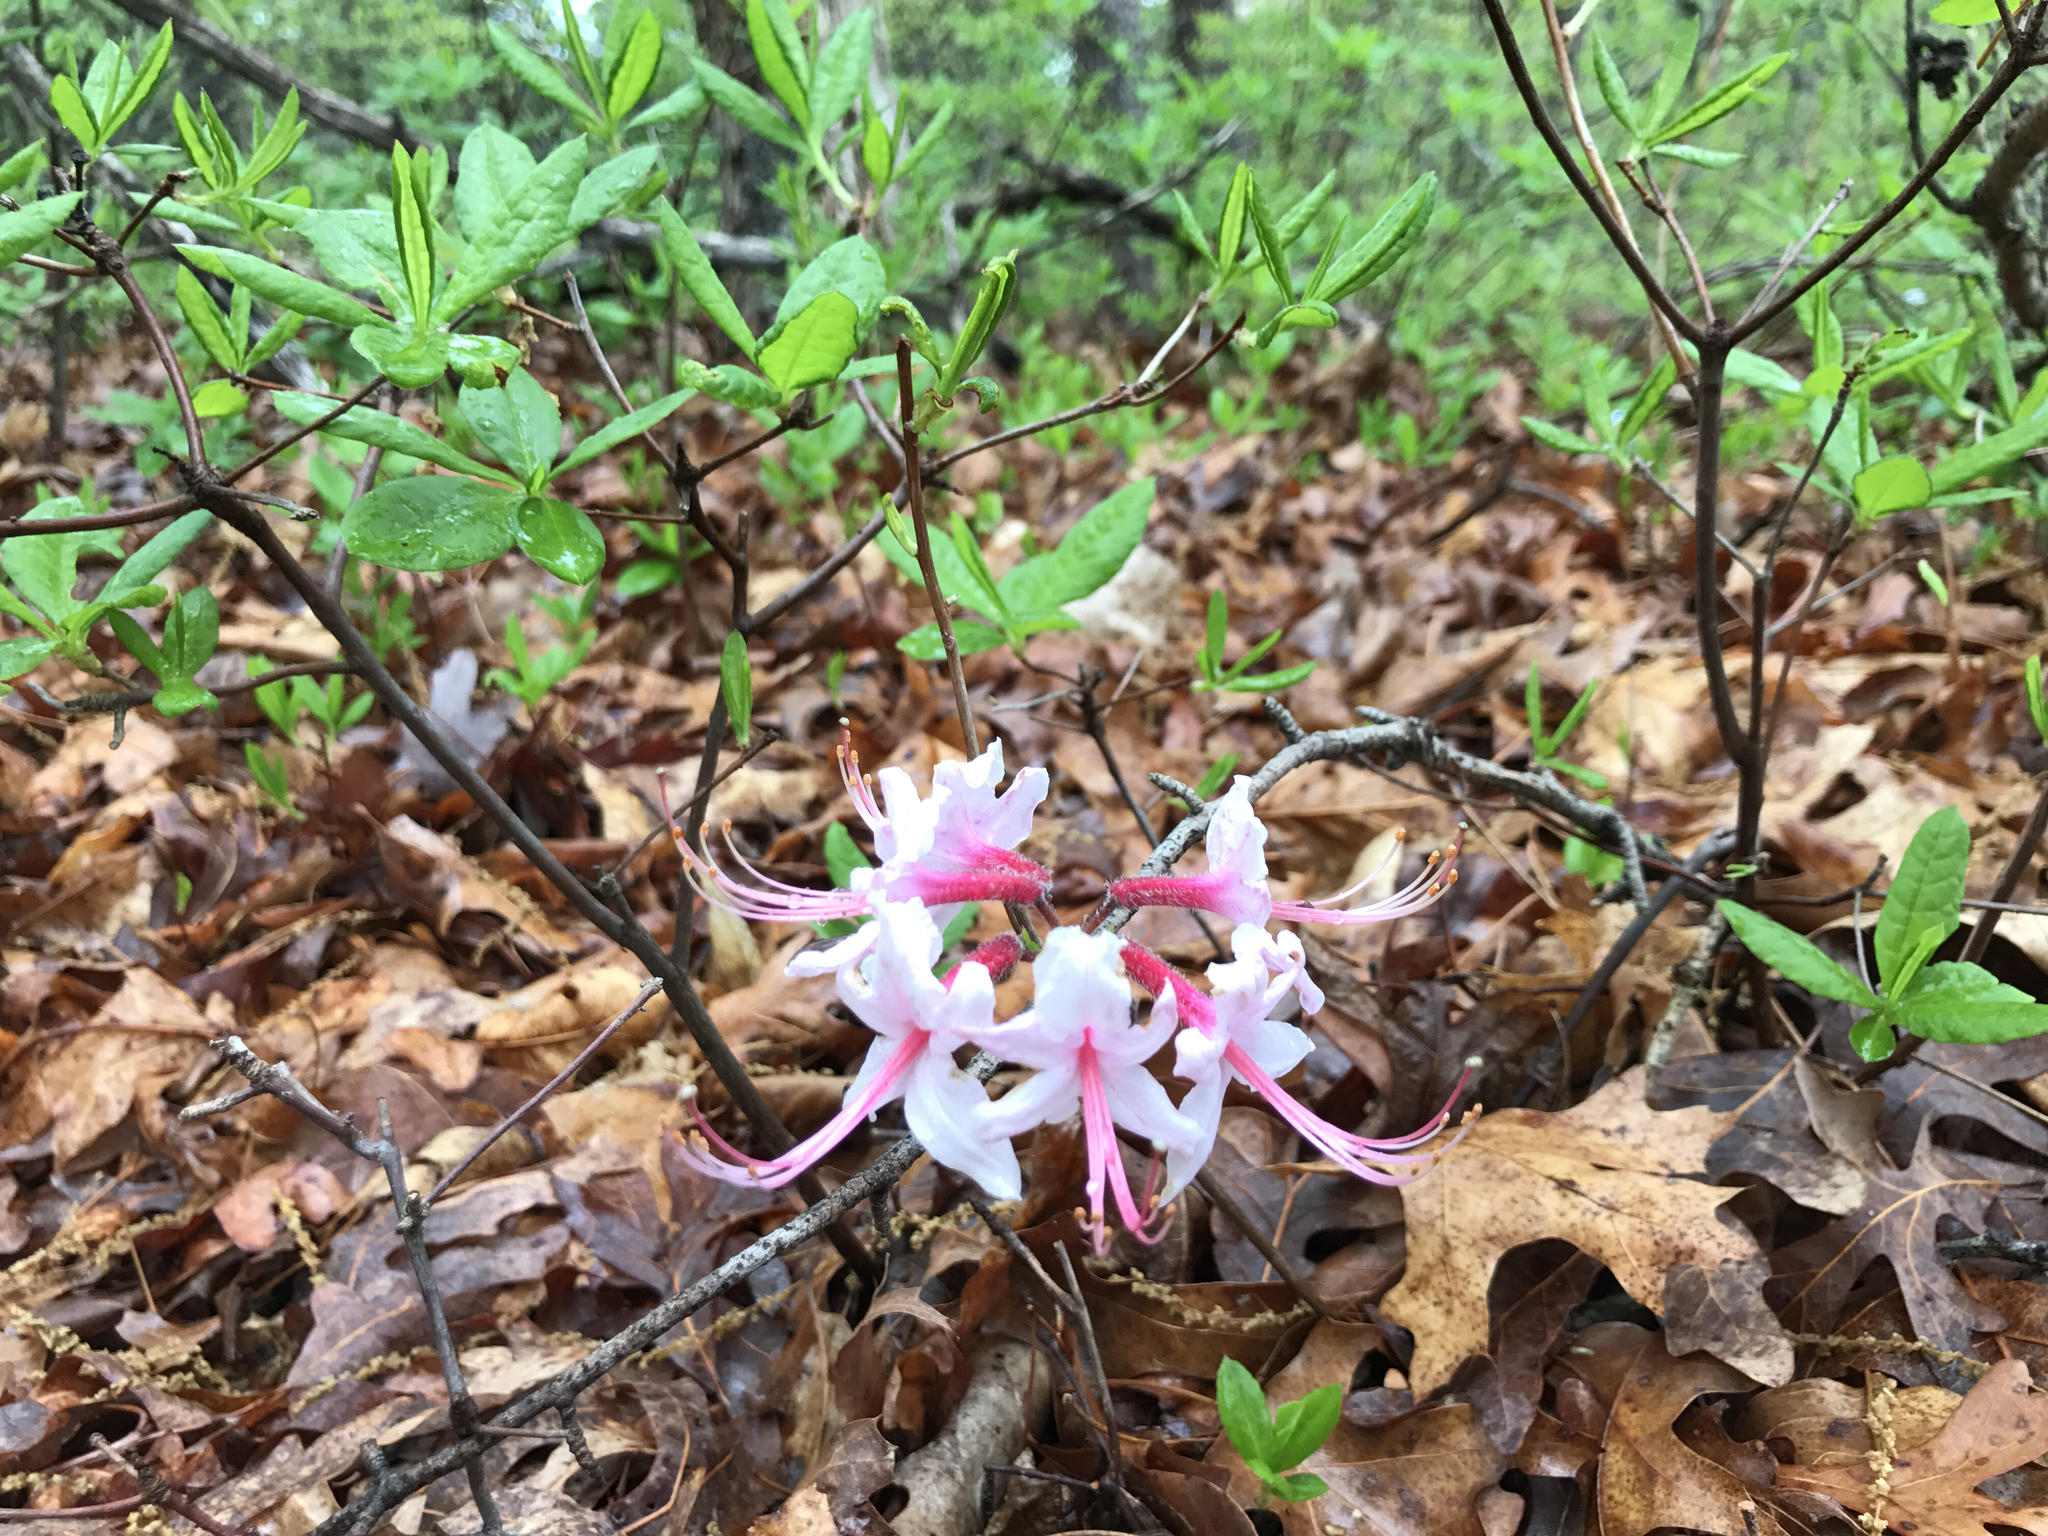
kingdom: Plantae
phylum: Tracheophyta
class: Magnoliopsida
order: Ericales
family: Ericaceae
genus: Rhododendron
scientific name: Rhododendron periclymenoides
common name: Election-pink
